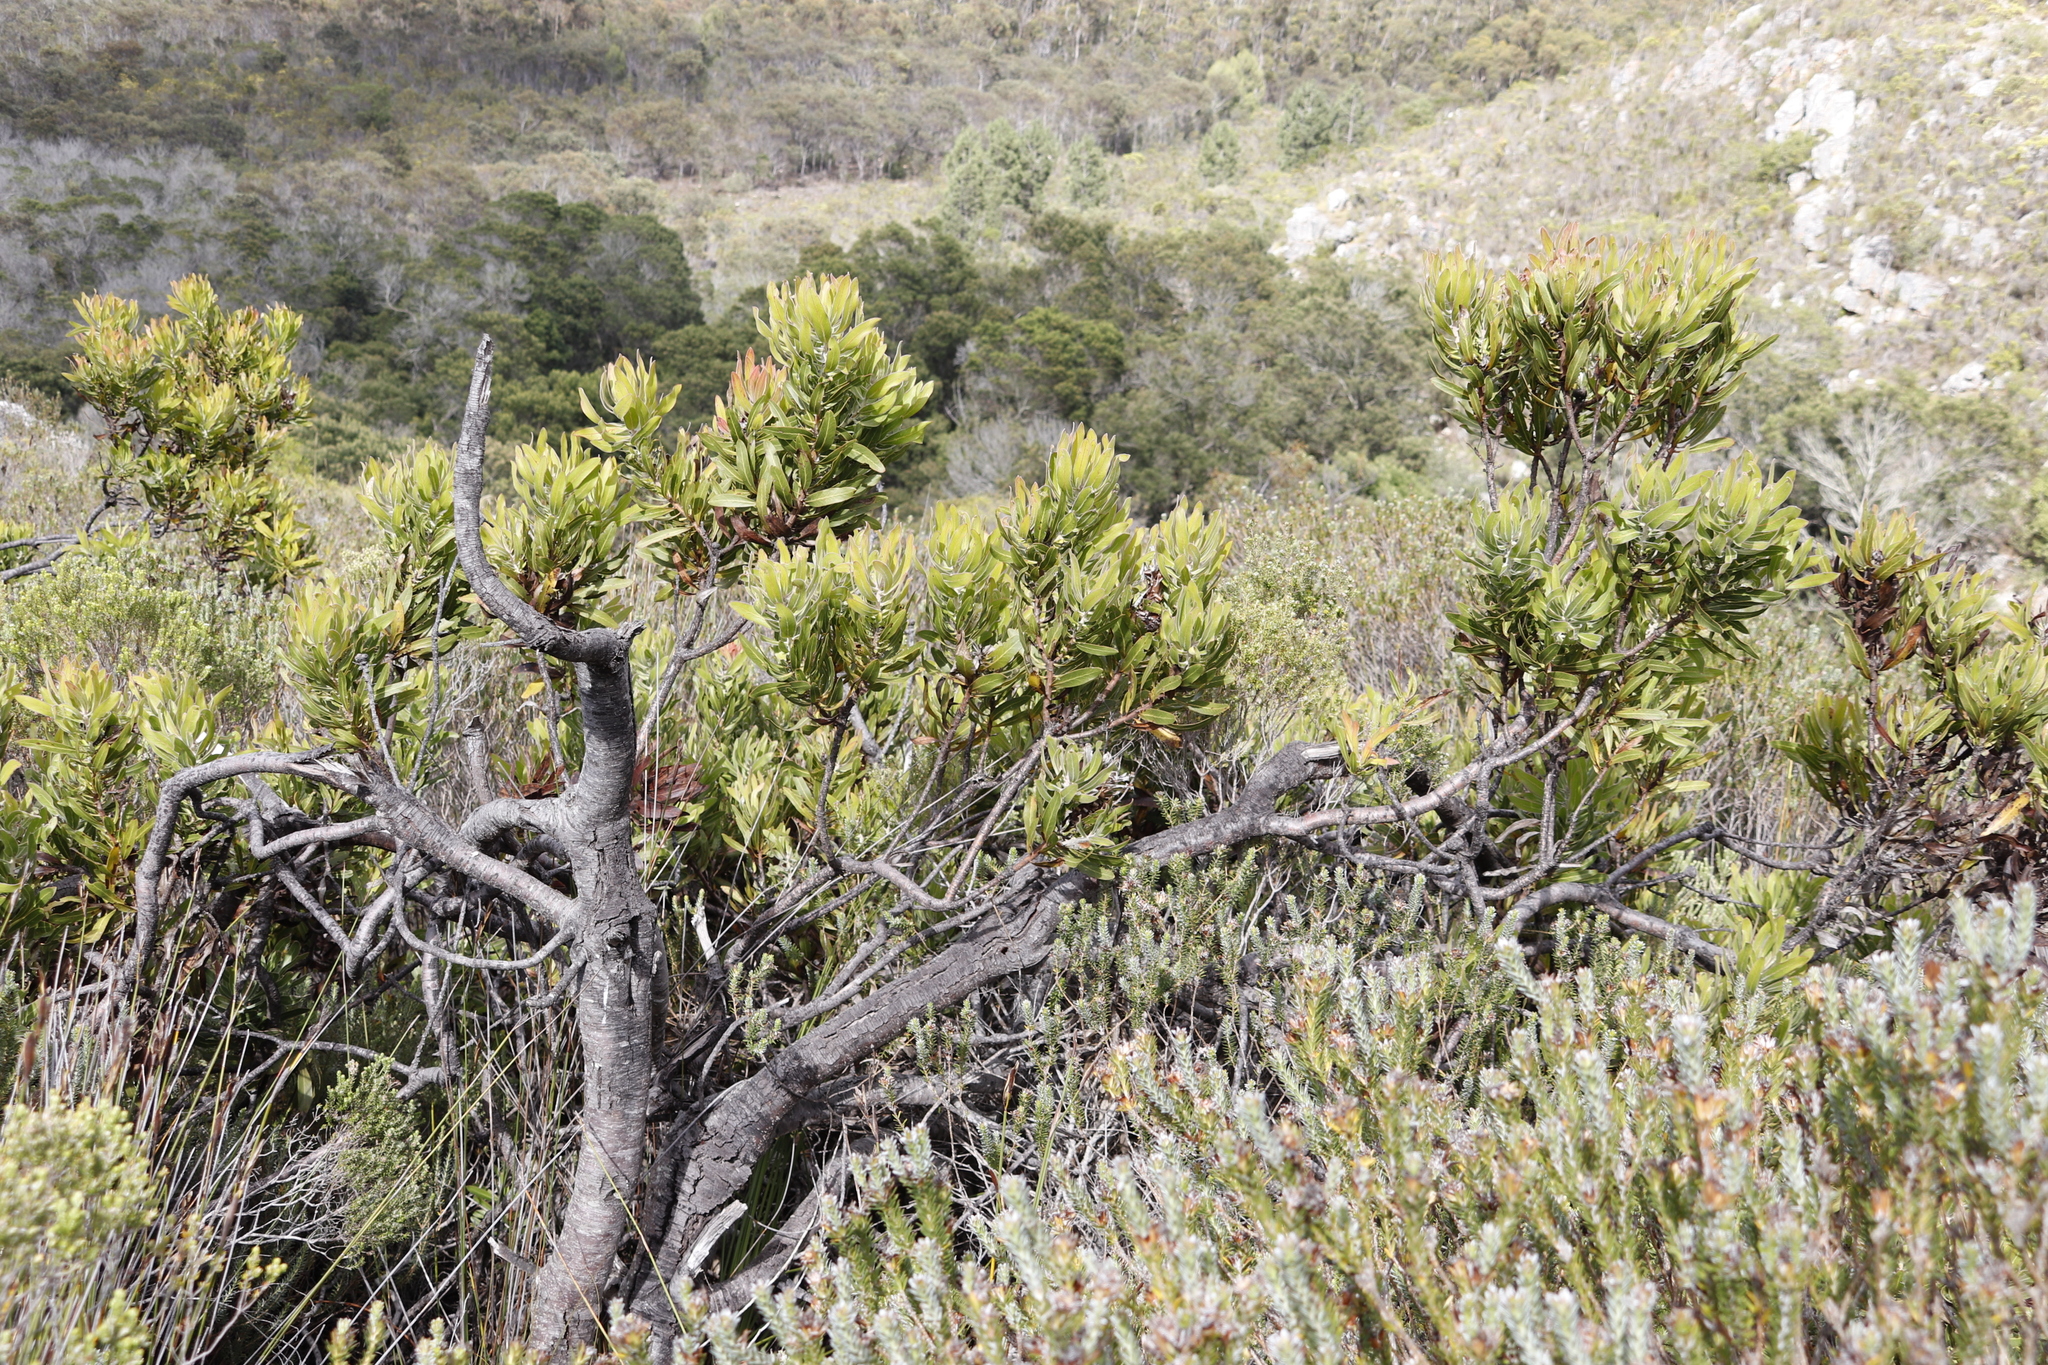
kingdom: Plantae
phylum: Tracheophyta
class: Magnoliopsida
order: Proteales
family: Proteaceae
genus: Protea
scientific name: Protea neriifolia
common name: Blue sugarbush
